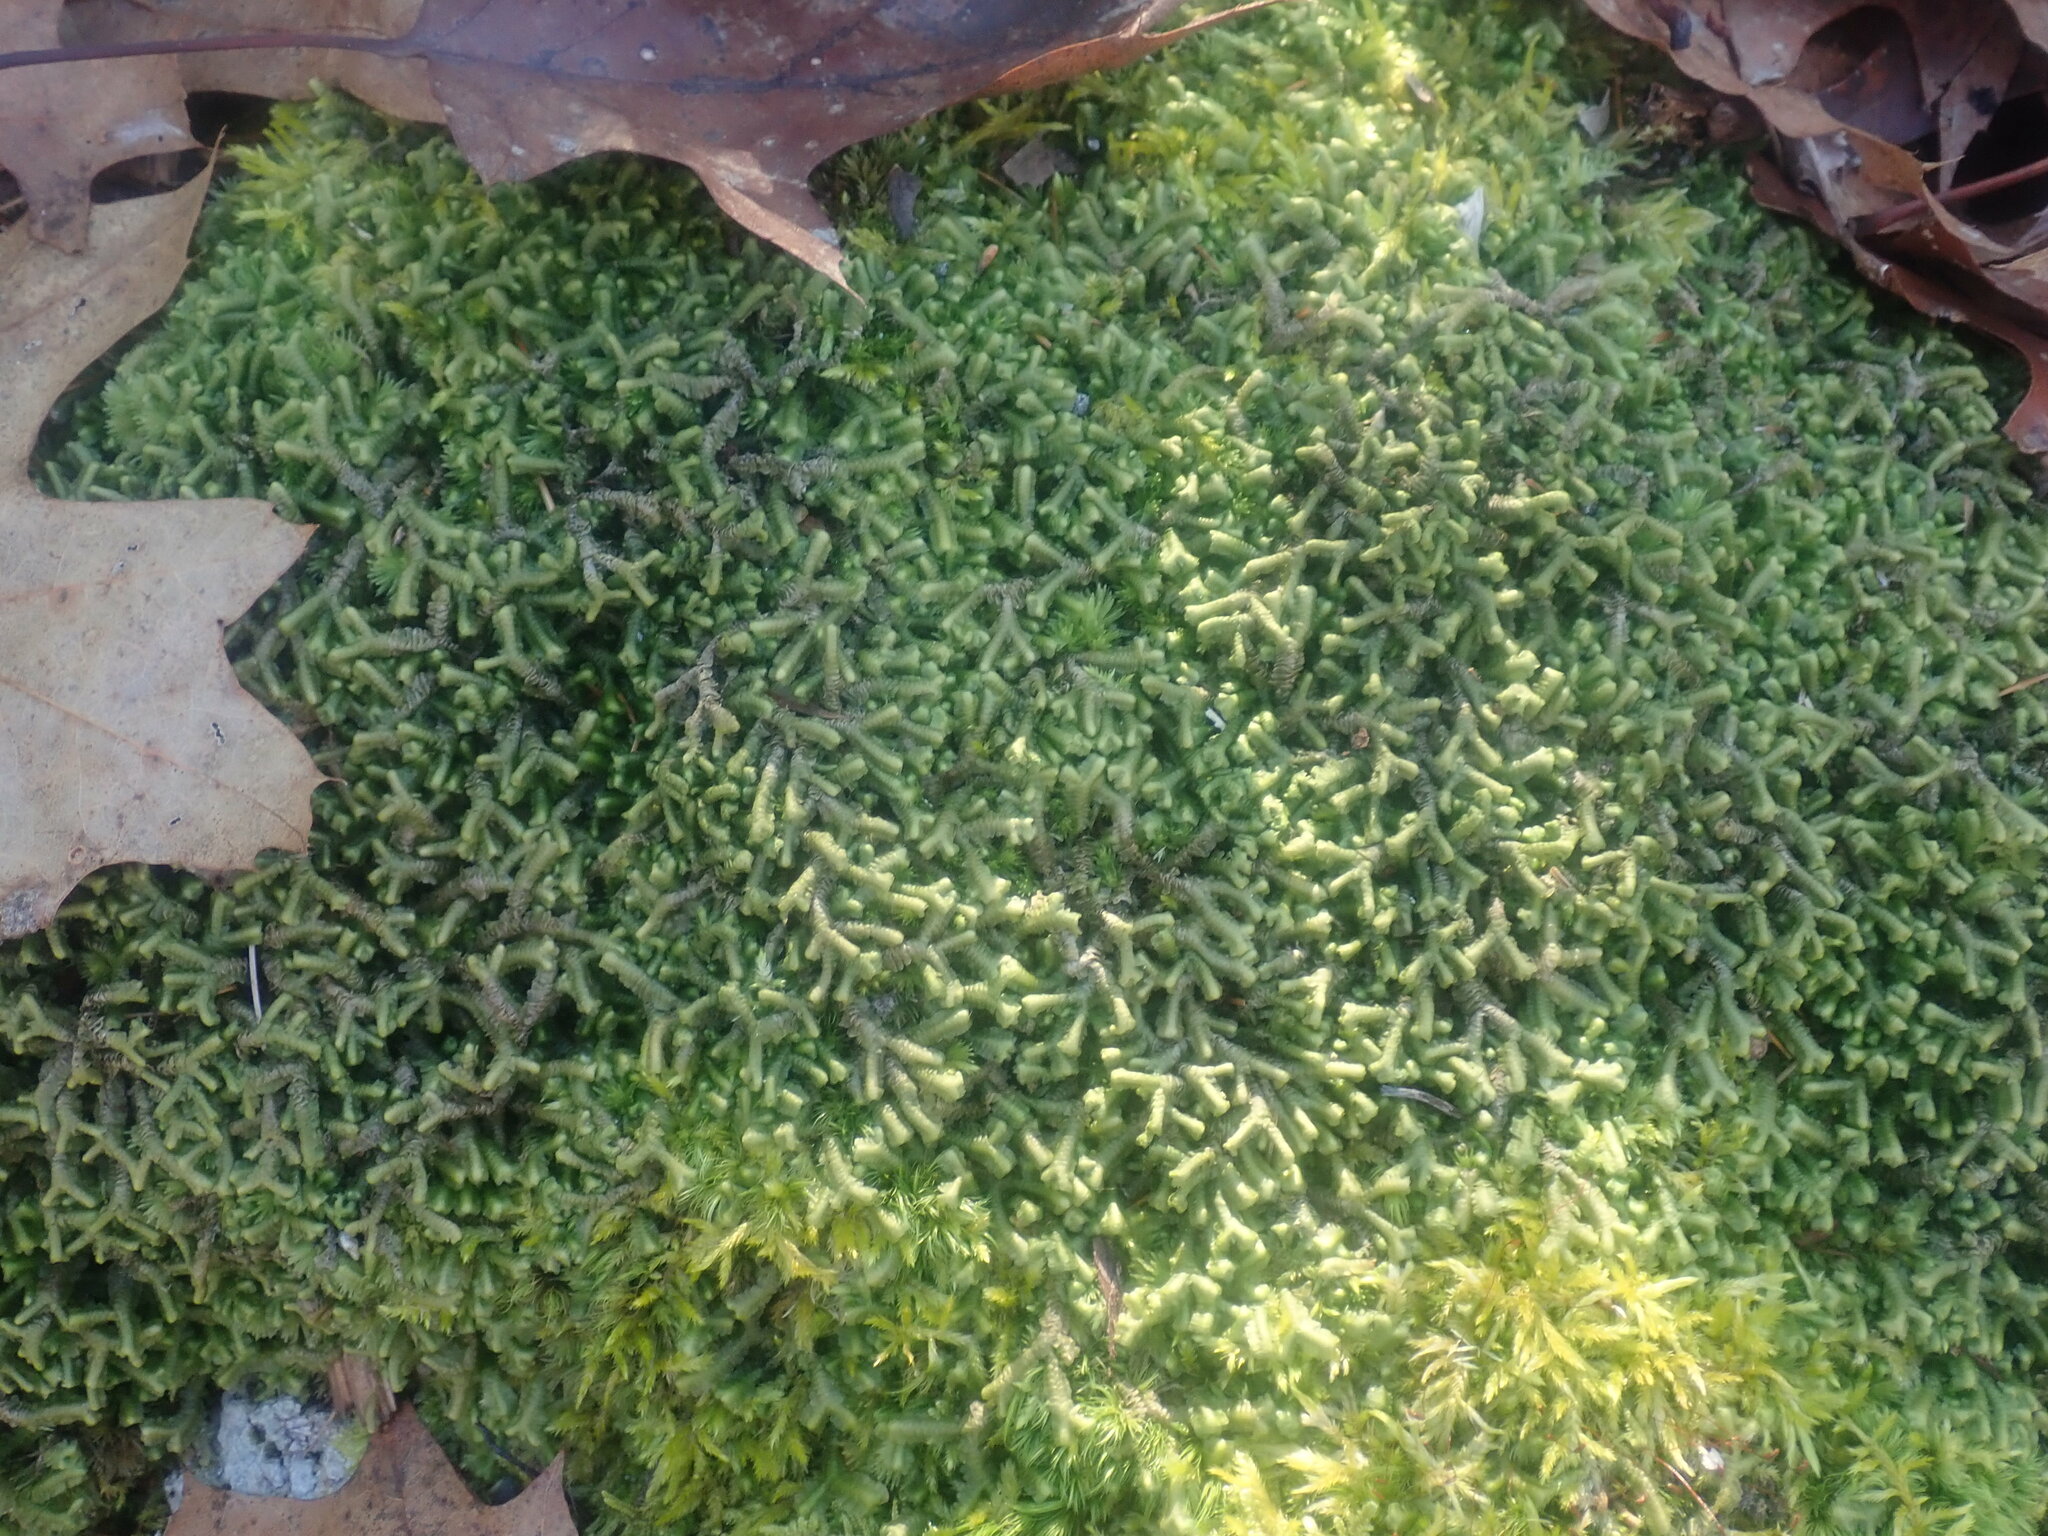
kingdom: Plantae
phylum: Marchantiophyta
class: Jungermanniopsida
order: Jungermanniales
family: Lepidoziaceae
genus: Bazzania
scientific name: Bazzania trilobata
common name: Three-lobed whipwort
